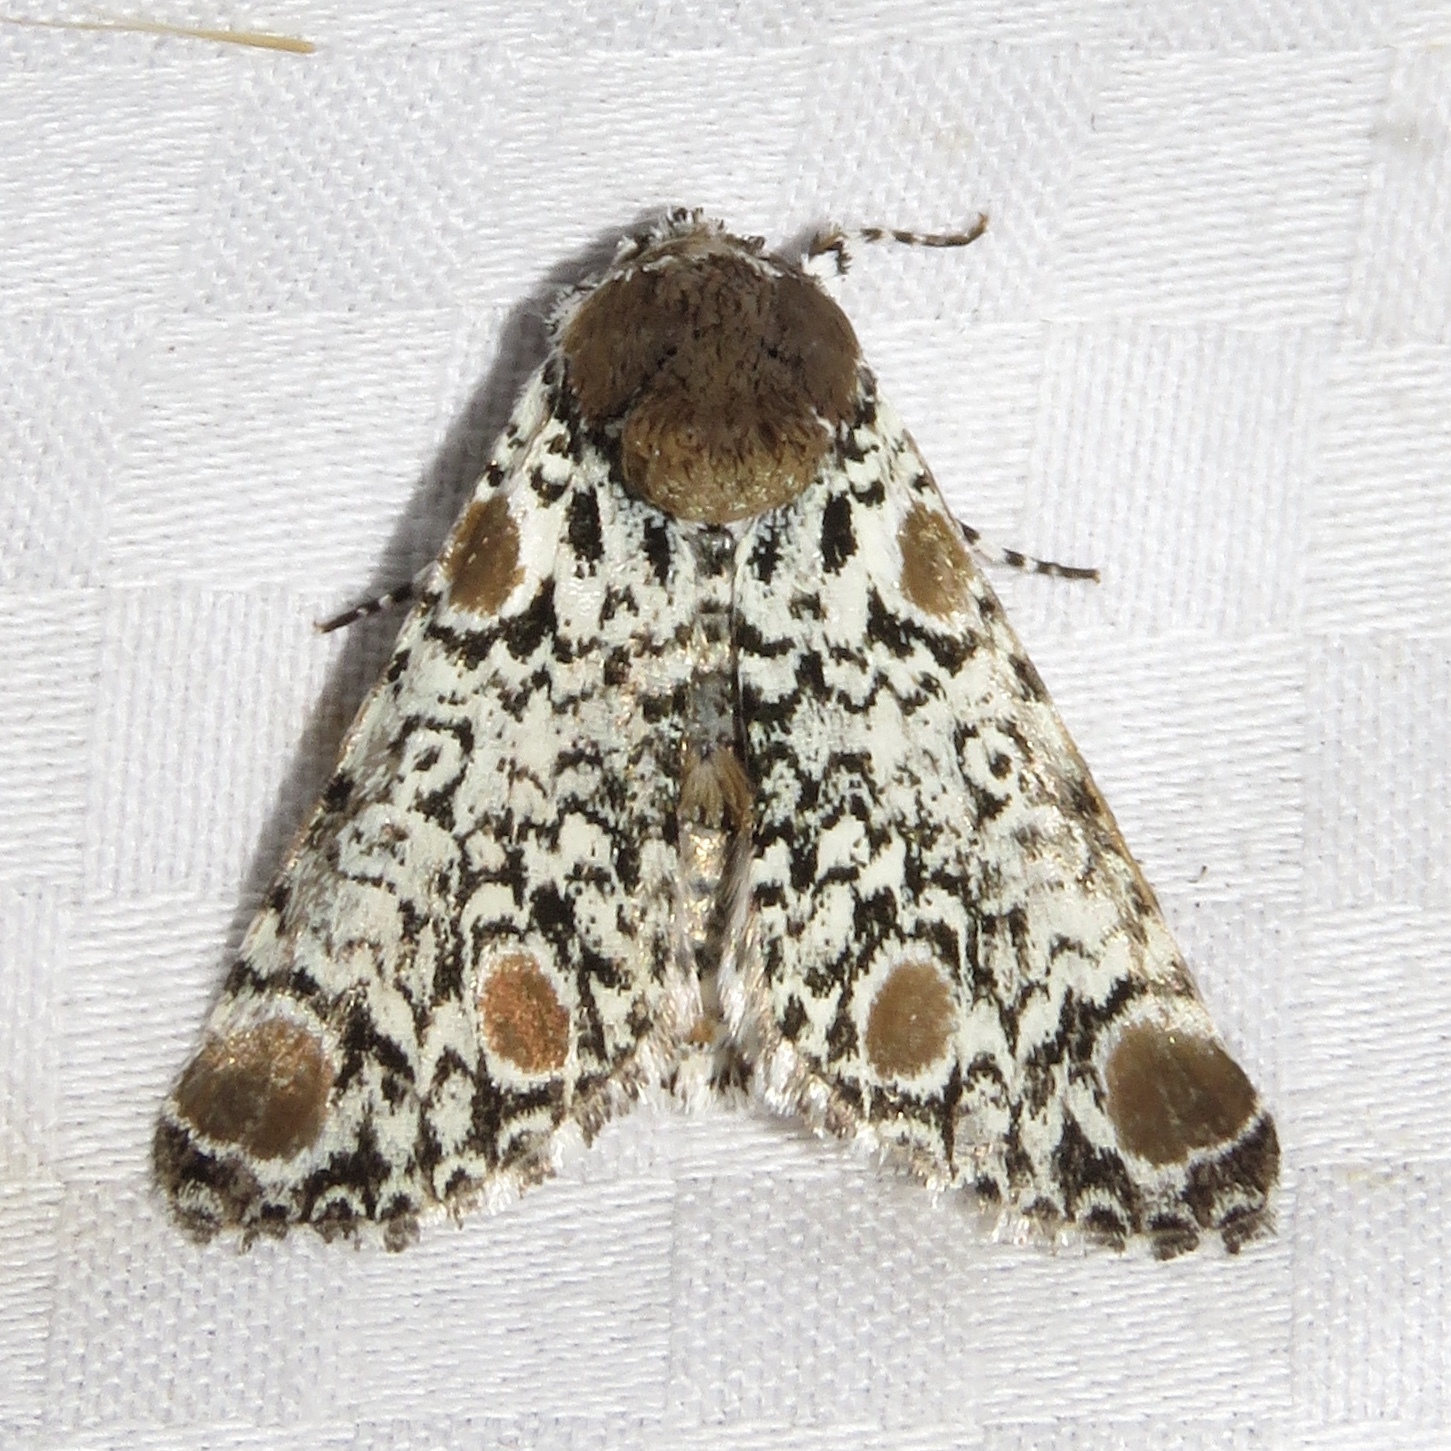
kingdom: Animalia
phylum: Arthropoda
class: Insecta
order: Lepidoptera
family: Noctuidae
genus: Harrisimemna
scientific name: Harrisimemna trisignata
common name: Harris threespot
